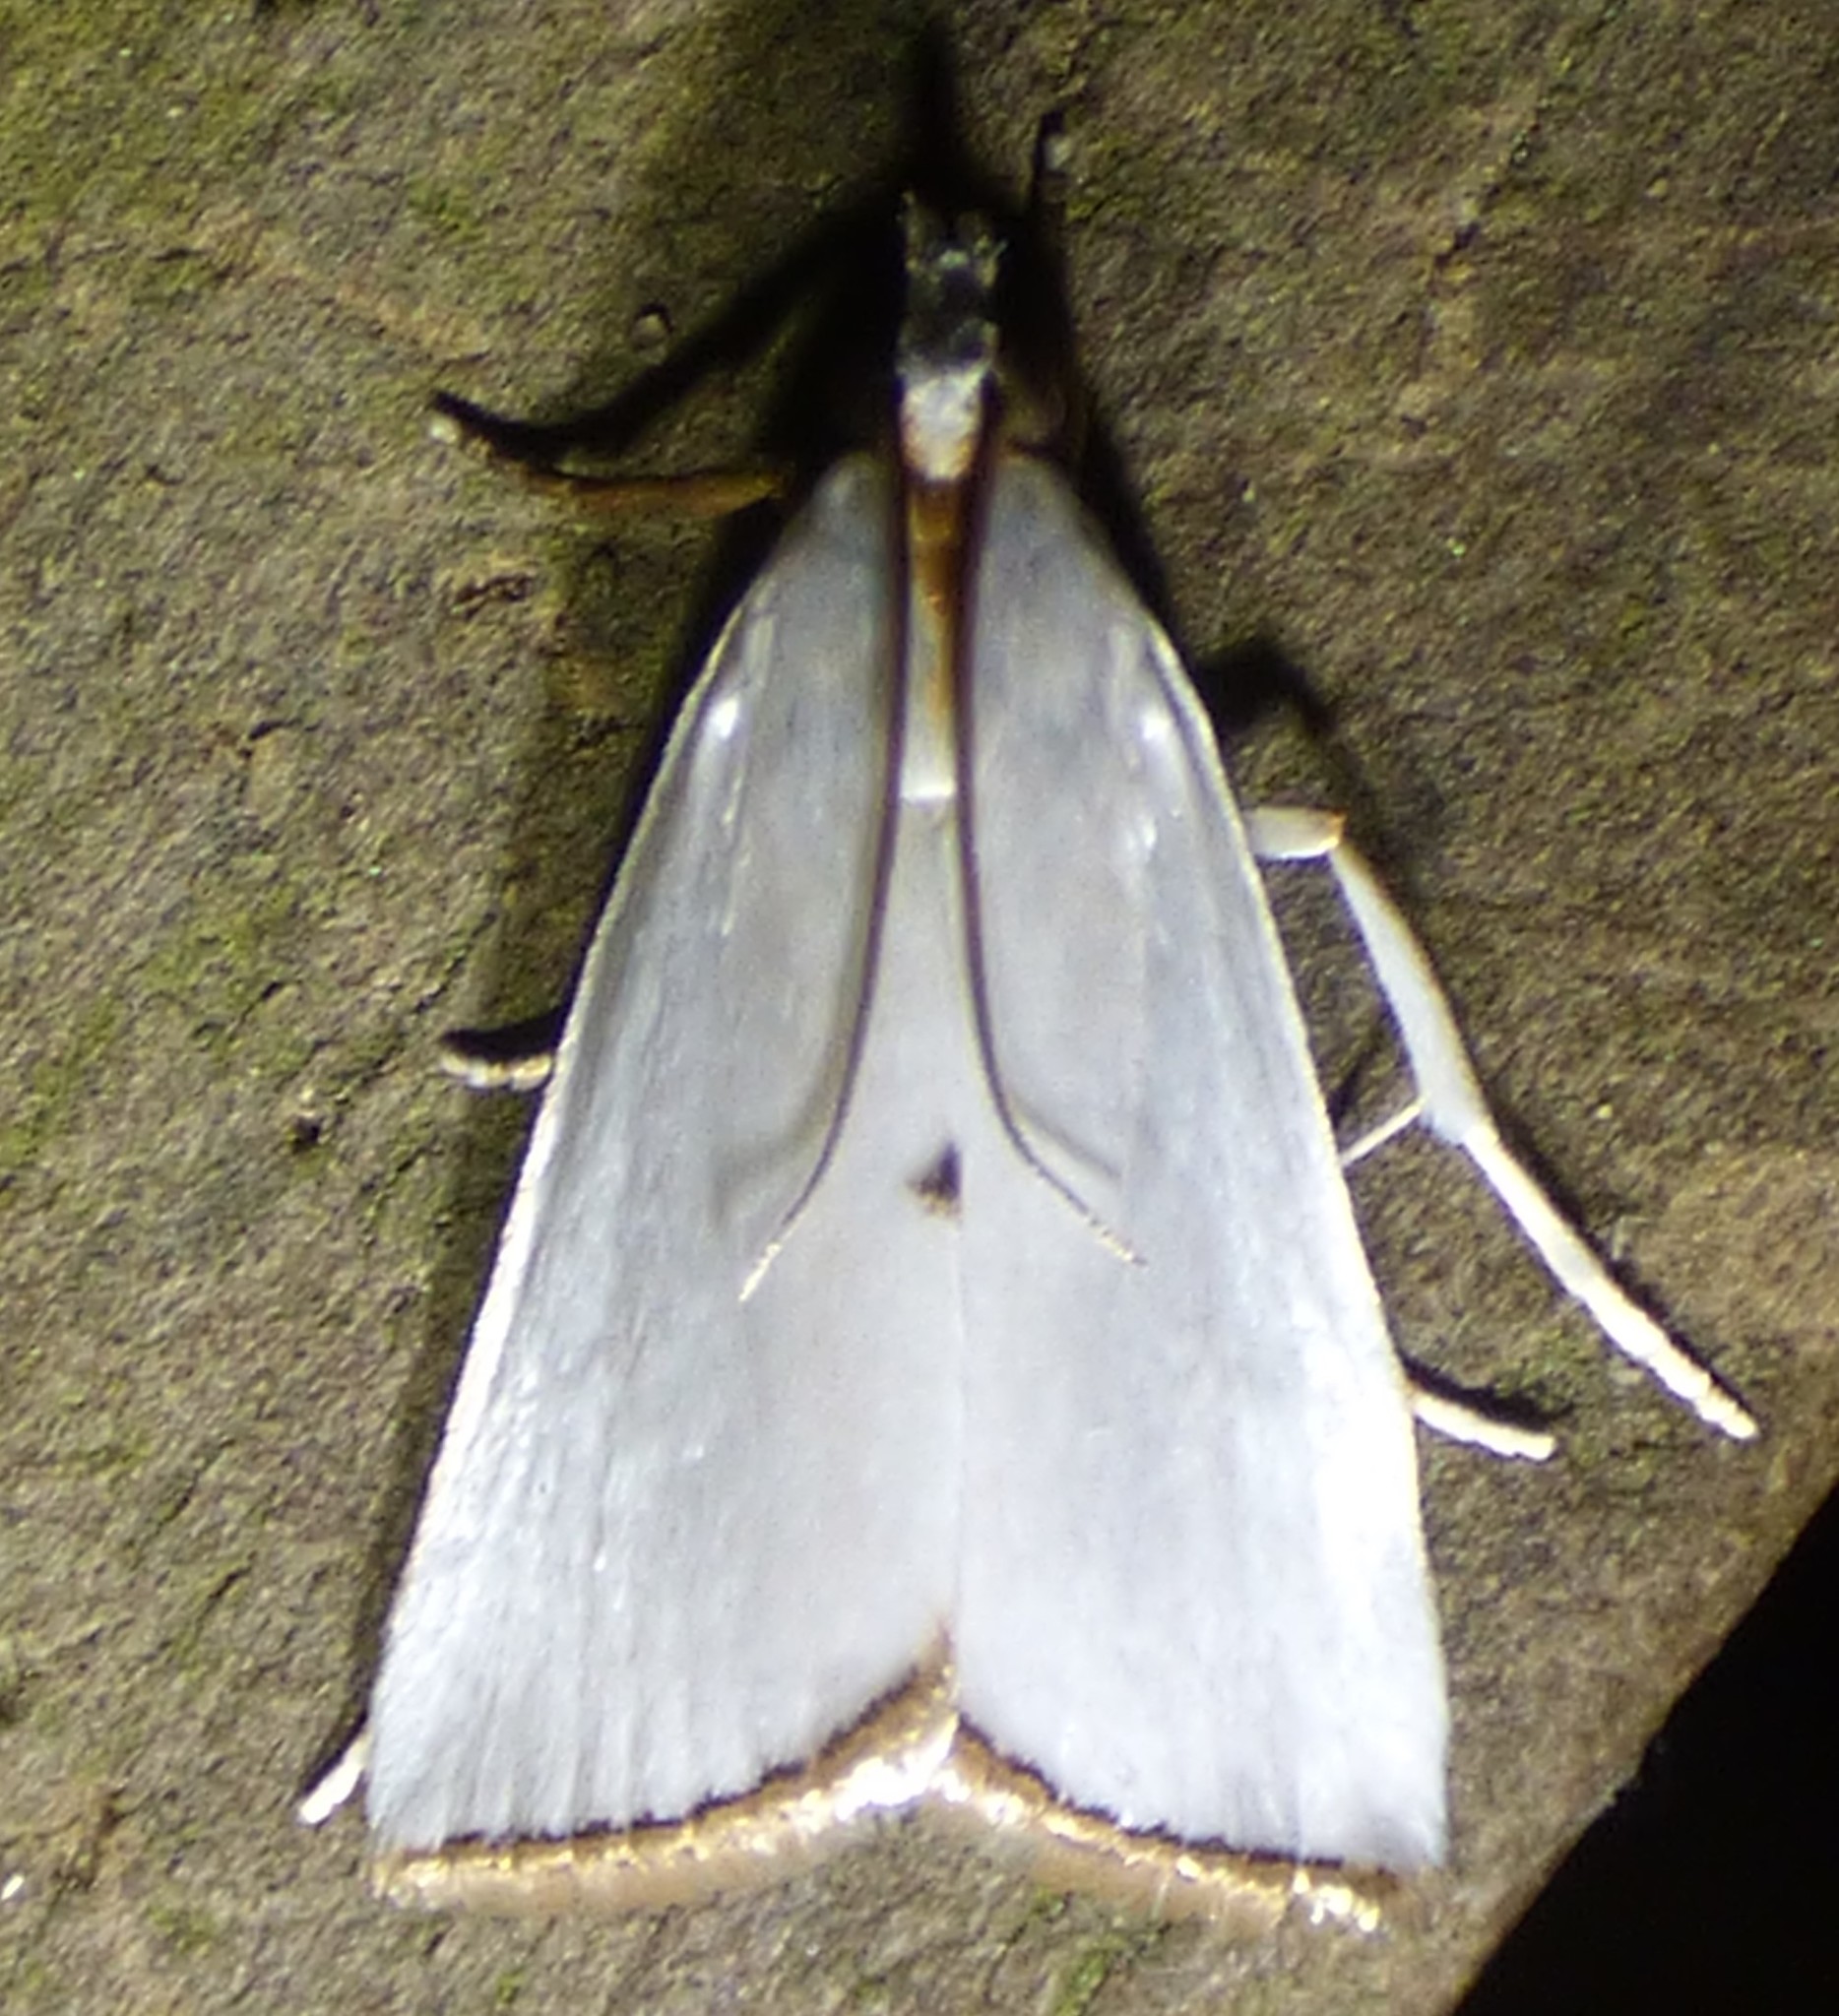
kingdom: Animalia
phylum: Arthropoda
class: Insecta
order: Lepidoptera
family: Crambidae
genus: Argyria
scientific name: Argyria nivalis
